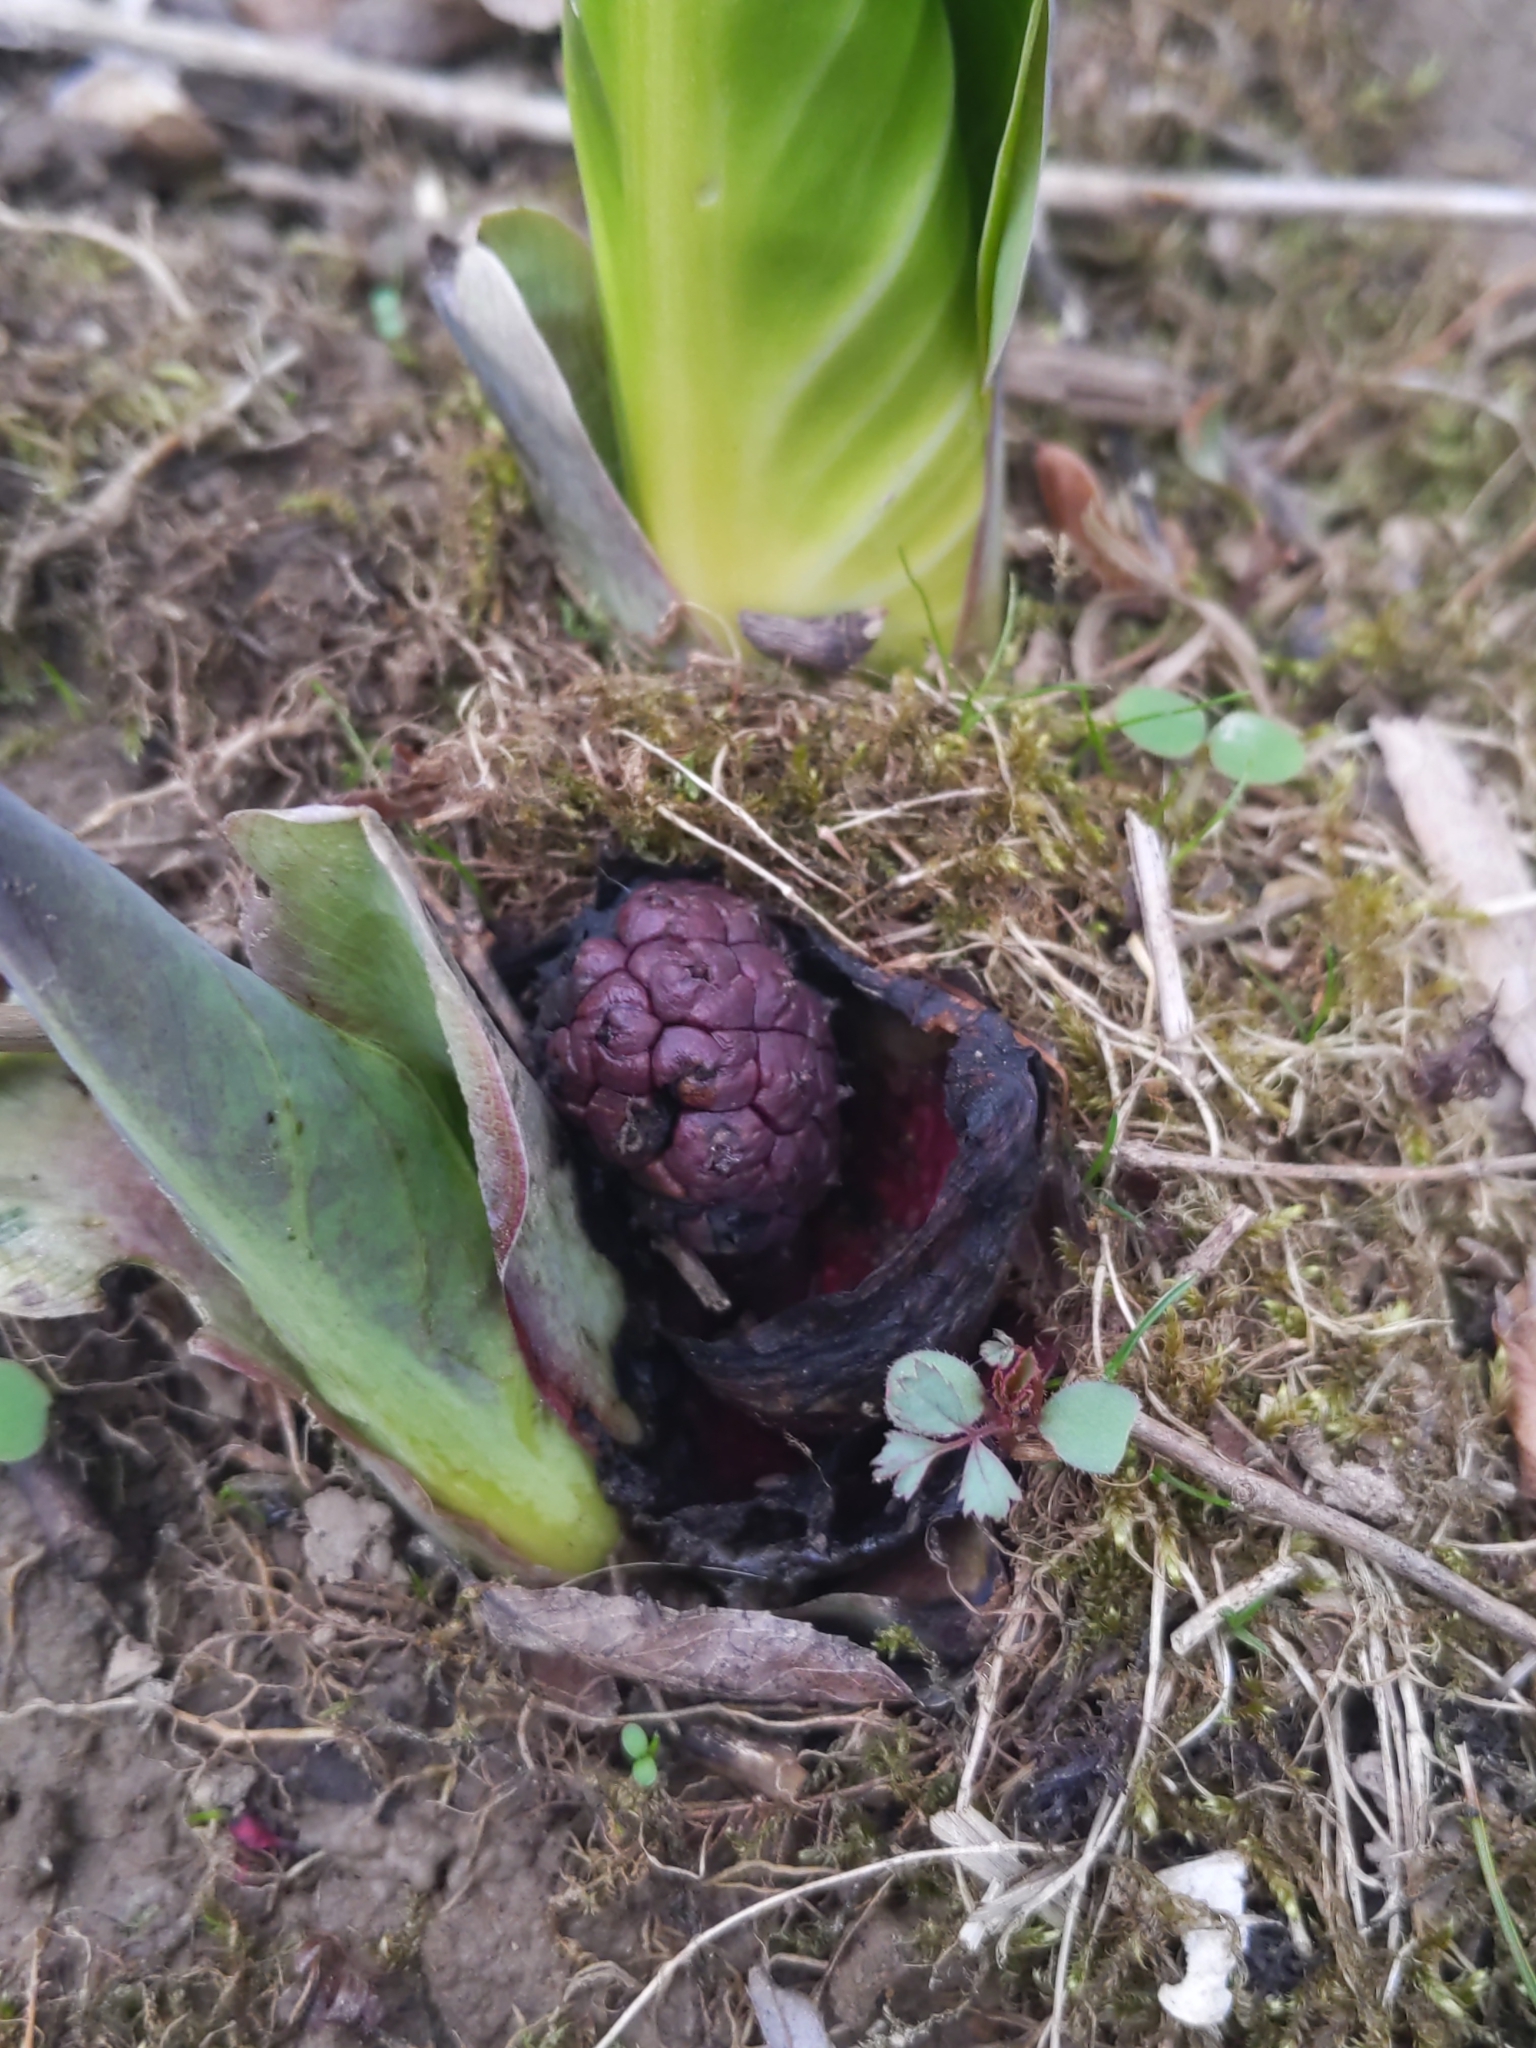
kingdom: Plantae
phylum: Tracheophyta
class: Liliopsida
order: Alismatales
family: Araceae
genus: Symplocarpus
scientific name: Symplocarpus foetidus
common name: Eastern skunk cabbage
